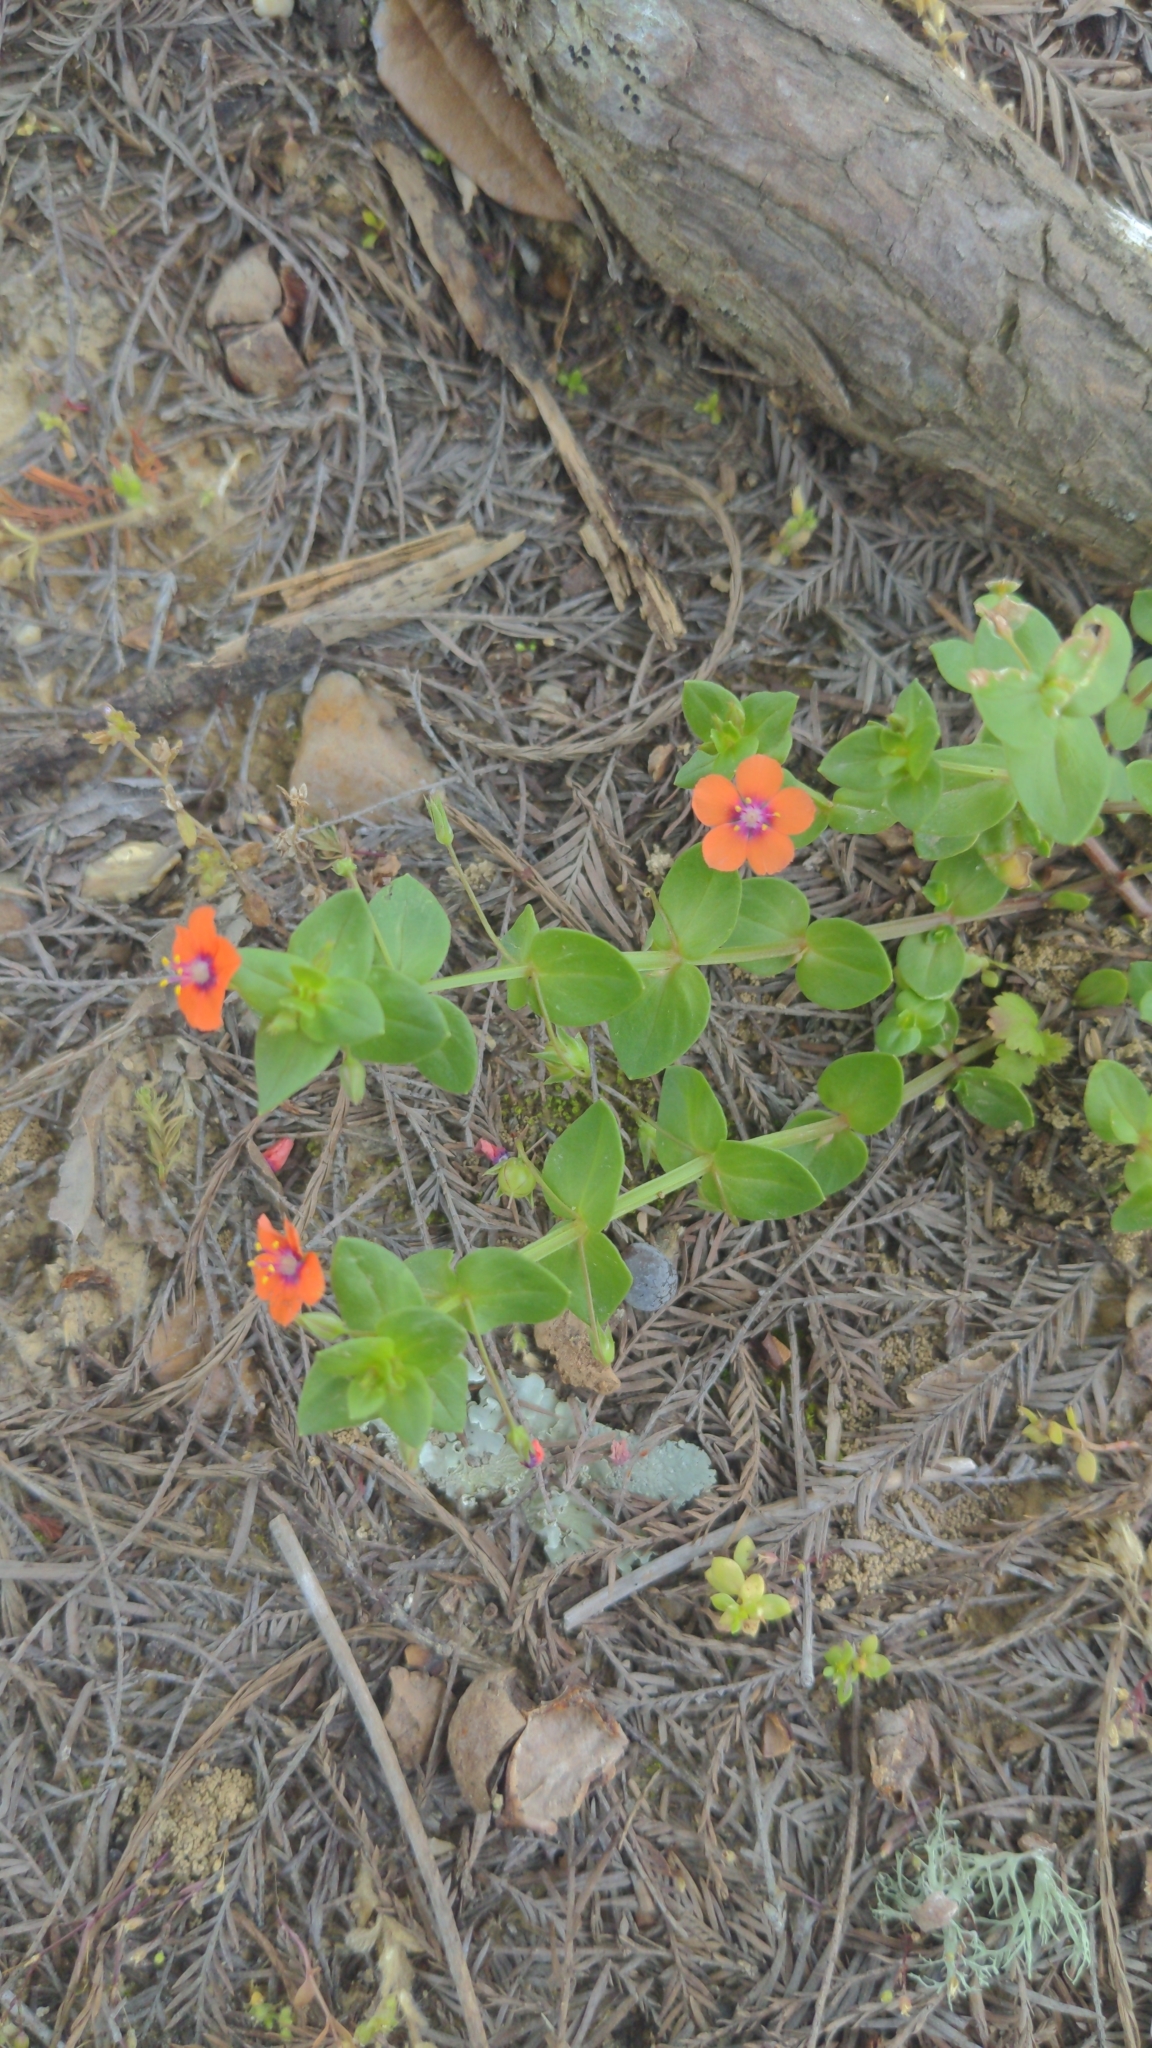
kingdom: Plantae
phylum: Tracheophyta
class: Magnoliopsida
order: Ericales
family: Primulaceae
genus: Lysimachia
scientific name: Lysimachia arvensis
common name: Scarlet pimpernel
